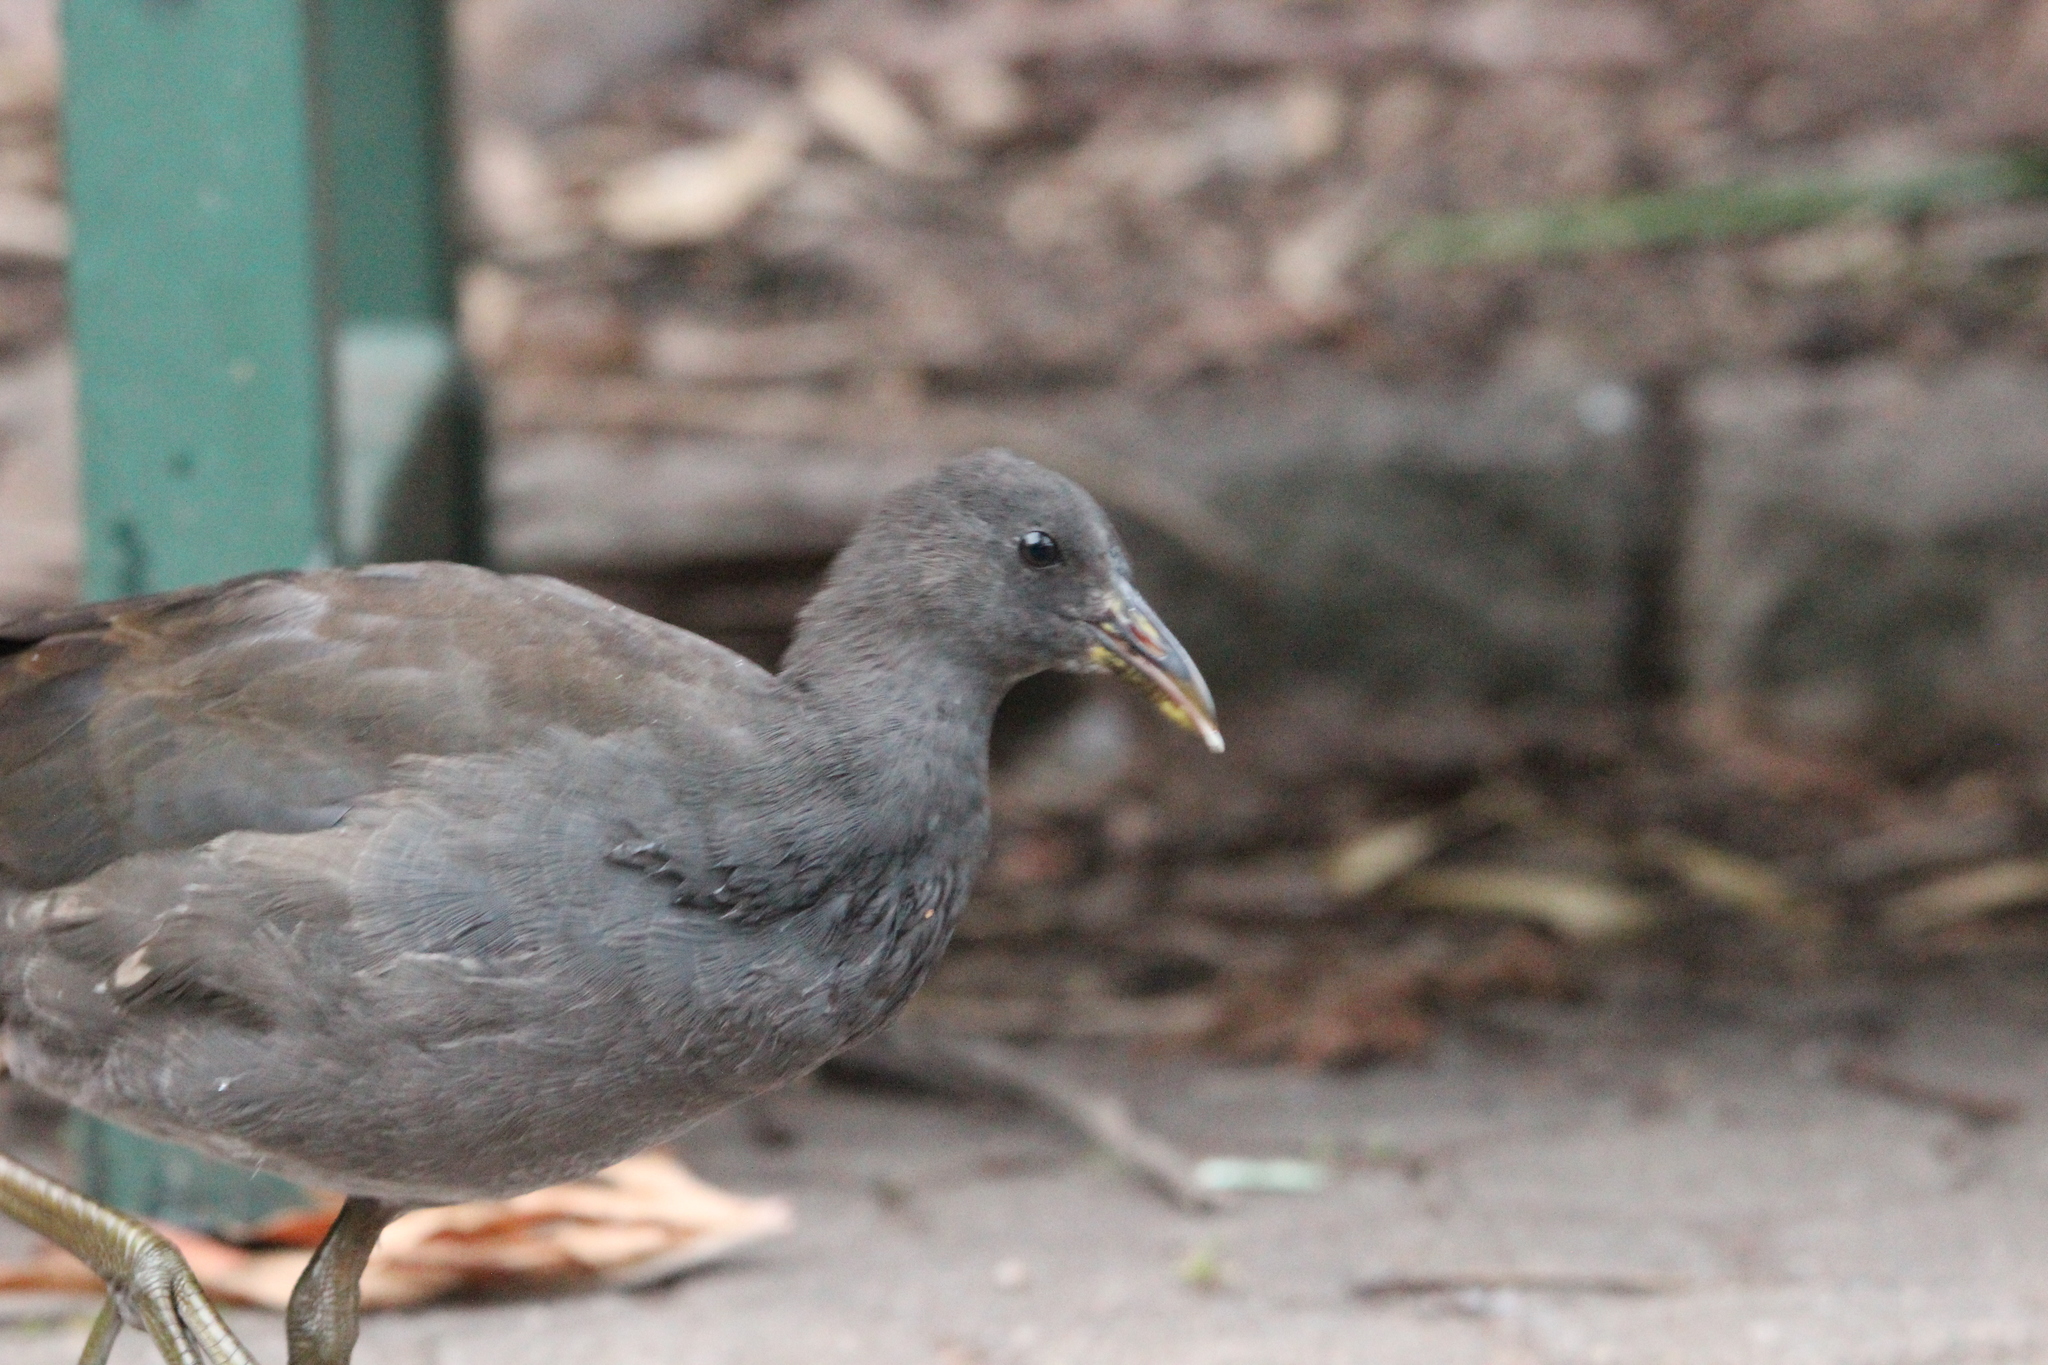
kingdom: Animalia
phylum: Chordata
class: Aves
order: Gruiformes
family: Rallidae
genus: Gallinula
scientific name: Gallinula tenebrosa
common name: Dusky moorhen
